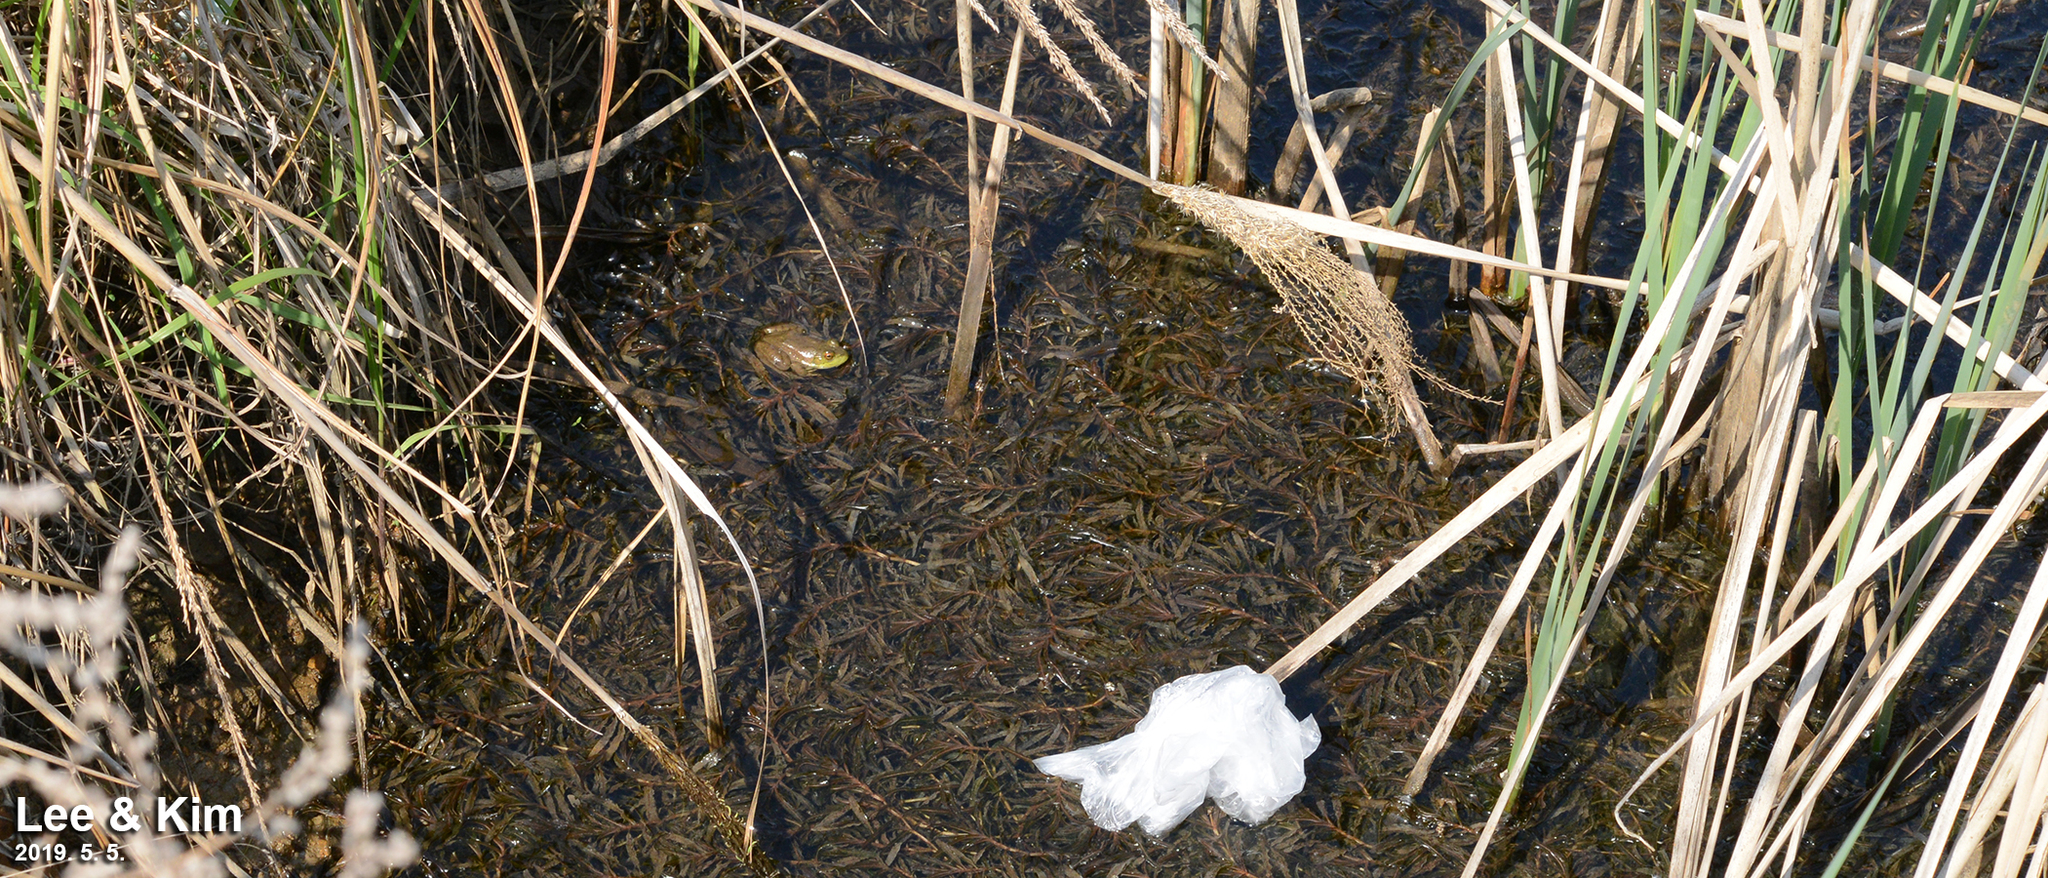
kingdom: Animalia
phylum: Chordata
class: Amphibia
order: Anura
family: Ranidae
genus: Lithobates
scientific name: Lithobates catesbeianus
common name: American bullfrog
